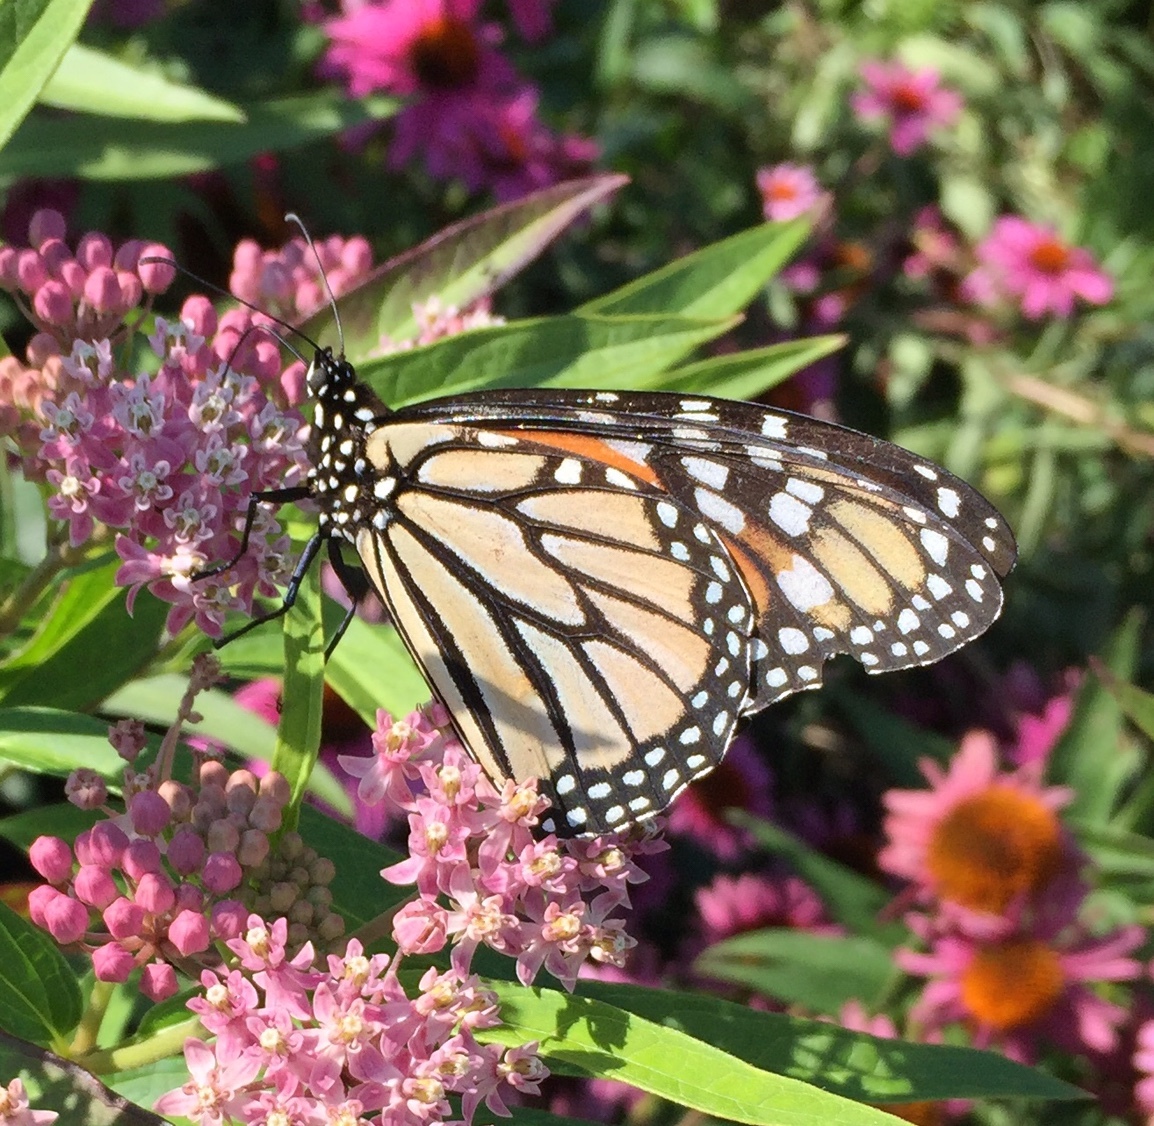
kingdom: Animalia
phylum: Arthropoda
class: Insecta
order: Lepidoptera
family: Nymphalidae
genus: Danaus
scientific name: Danaus plexippus
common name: Monarch
